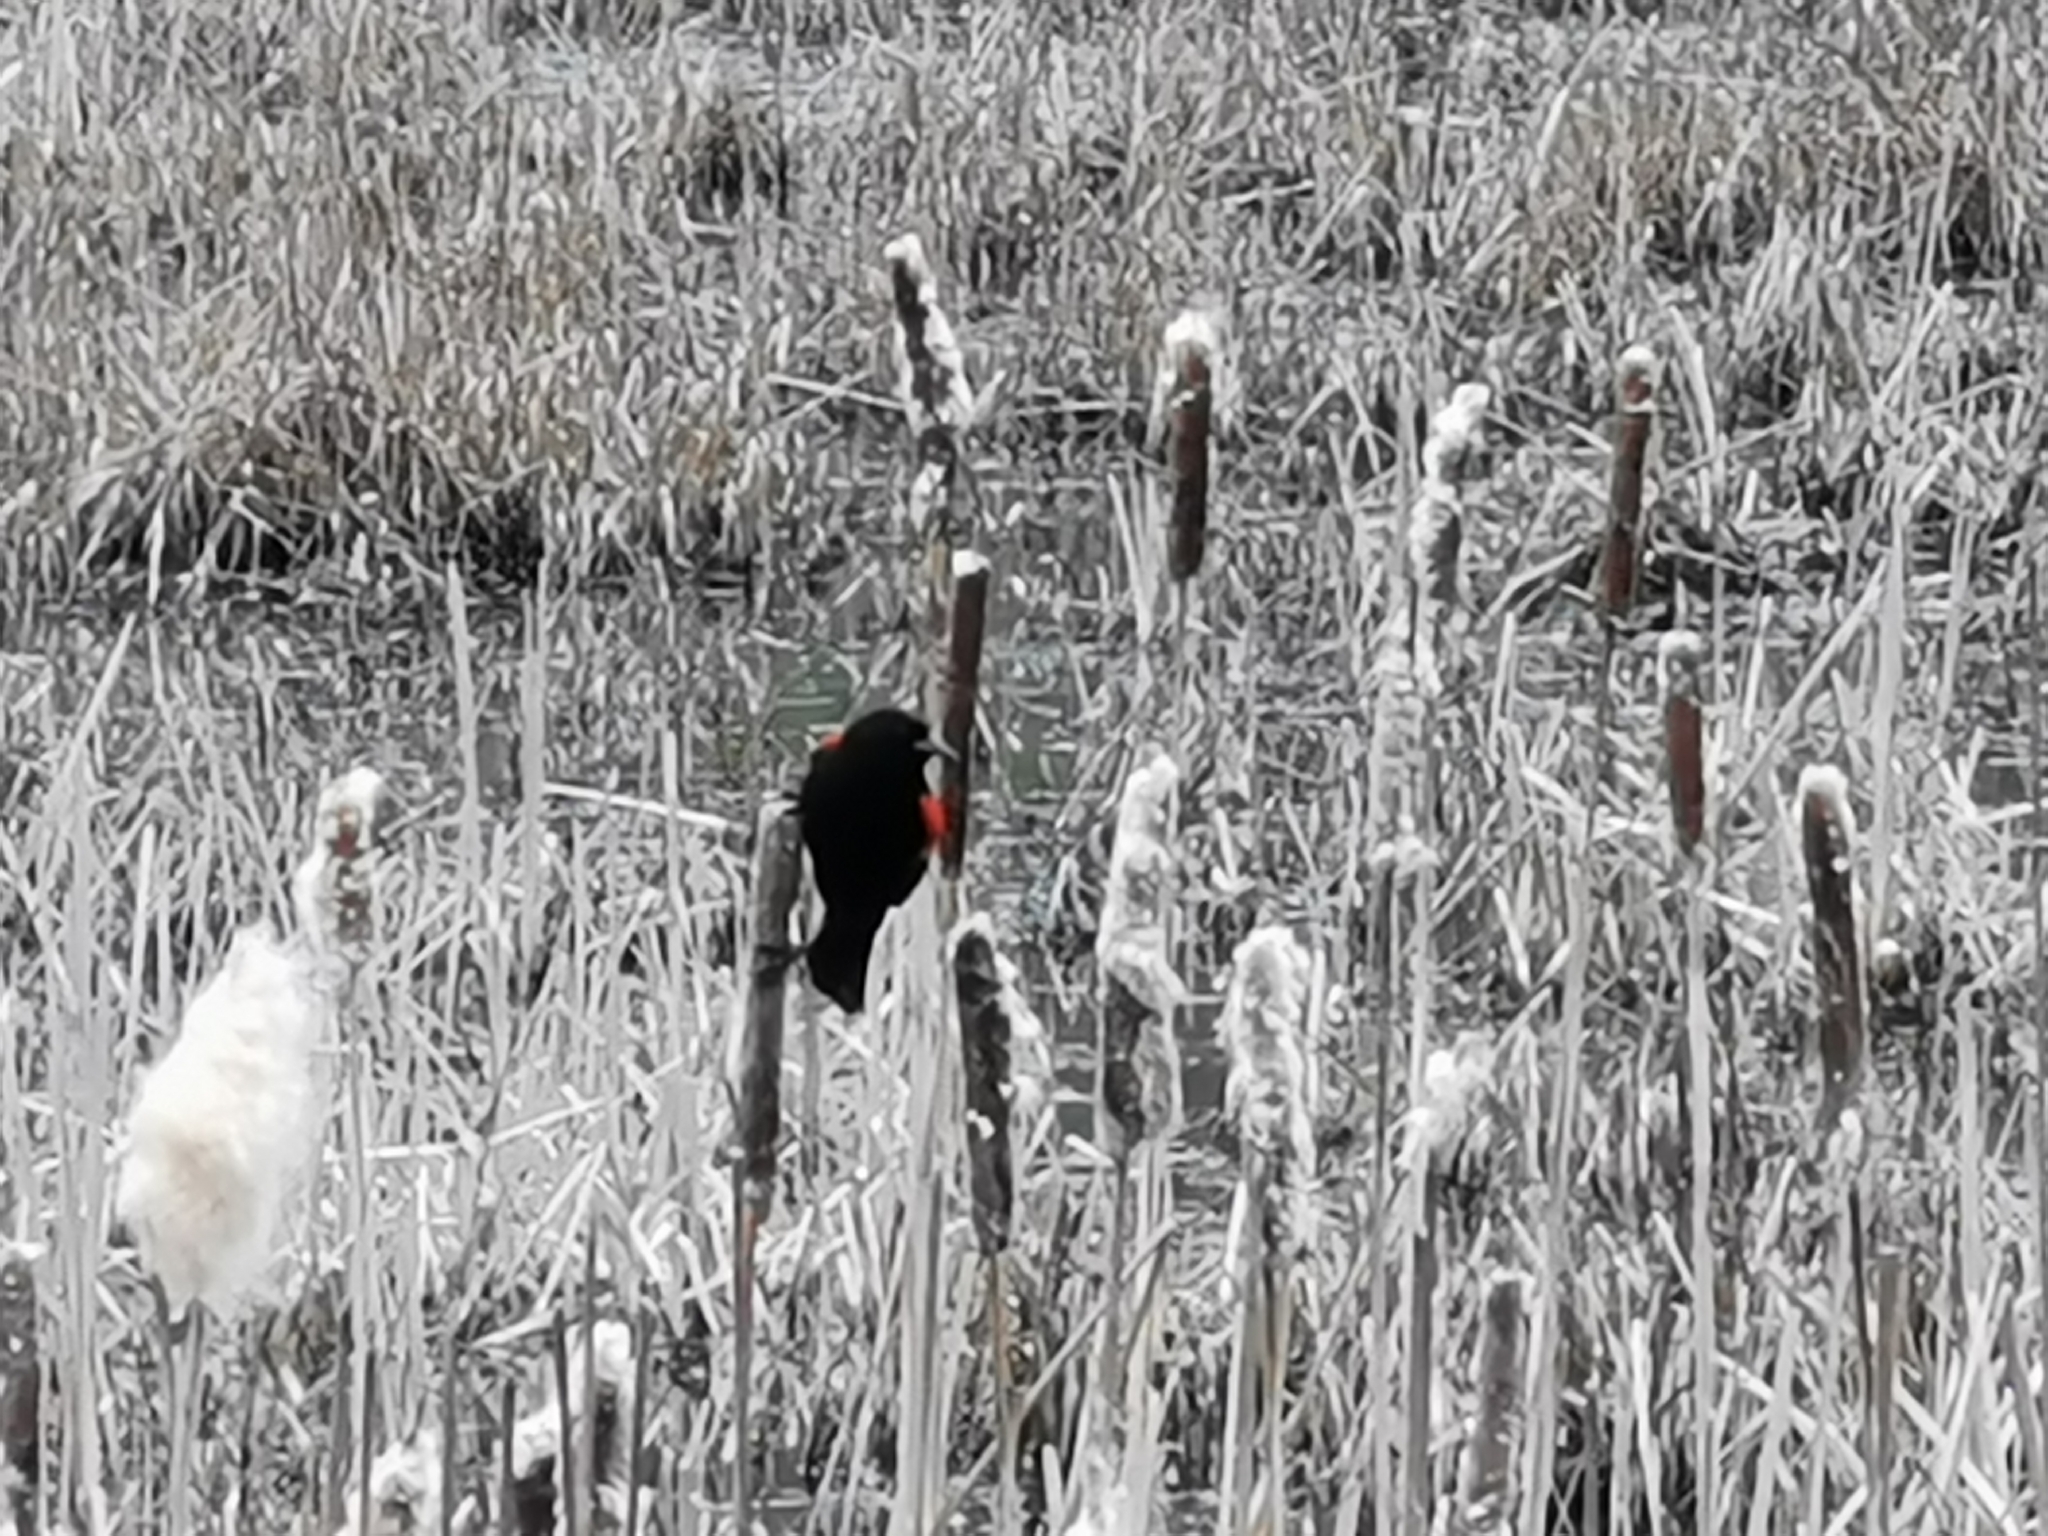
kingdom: Animalia
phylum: Chordata
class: Aves
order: Passeriformes
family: Icteridae
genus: Agelaius
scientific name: Agelaius phoeniceus
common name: Red-winged blackbird
